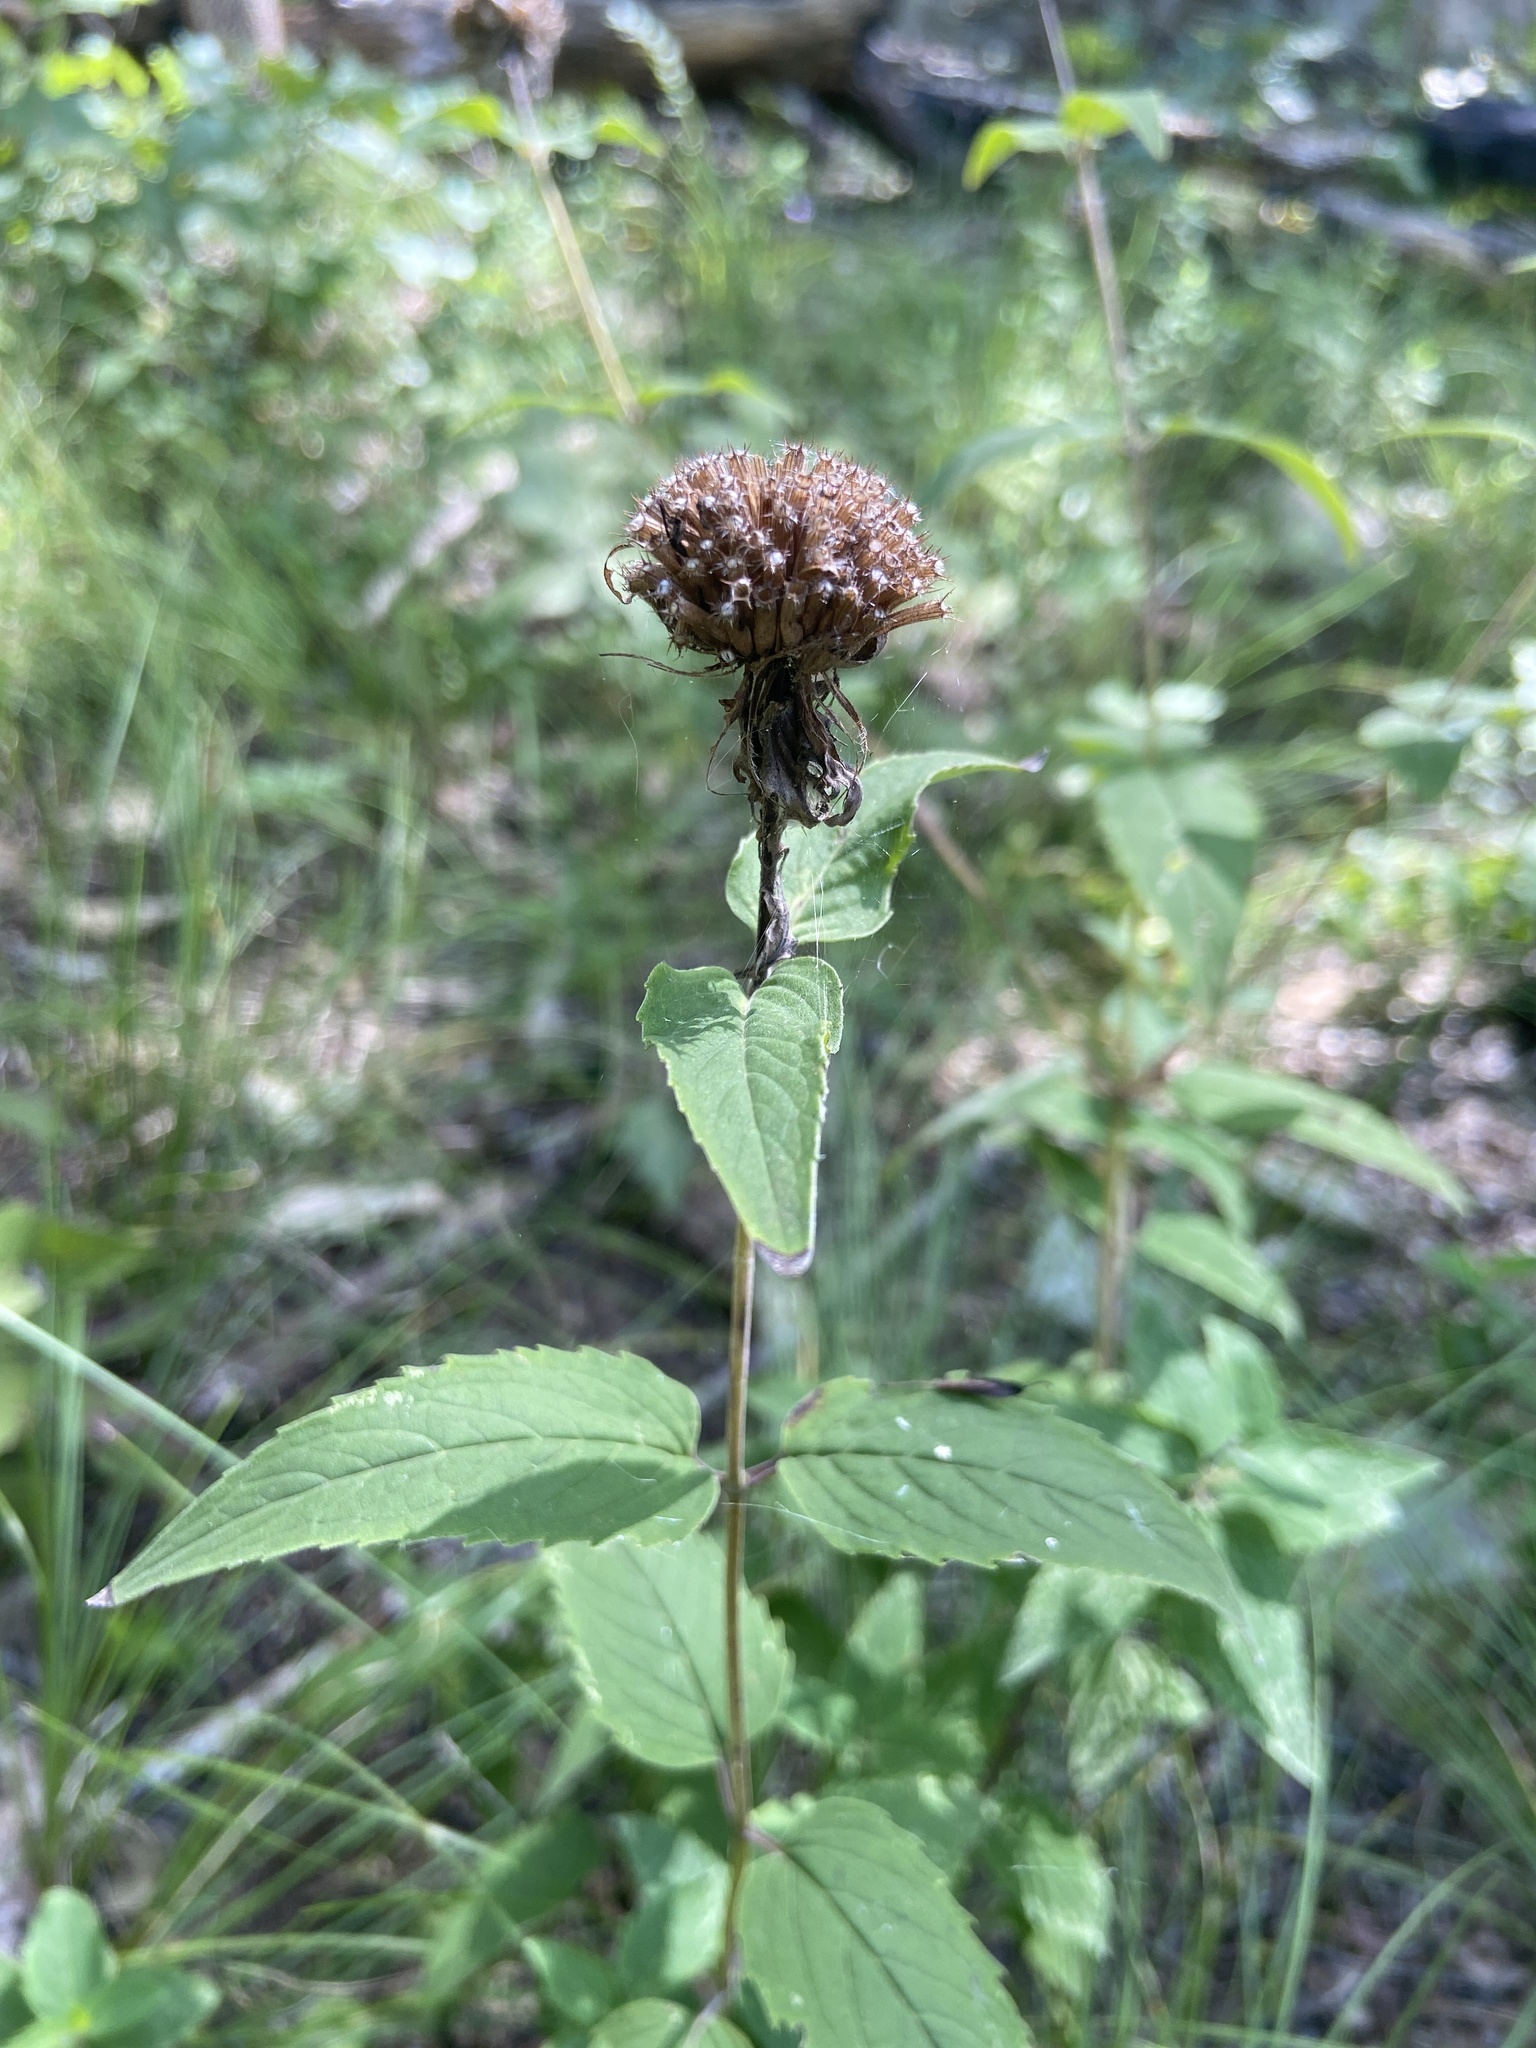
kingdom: Plantae
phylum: Tracheophyta
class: Magnoliopsida
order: Lamiales
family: Lamiaceae
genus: Monarda
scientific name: Monarda fistulosa
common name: Purple beebalm
